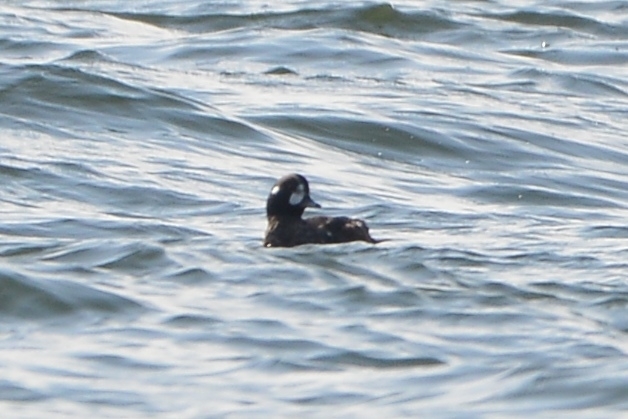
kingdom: Animalia
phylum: Chordata
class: Aves
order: Anseriformes
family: Anatidae
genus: Histrionicus
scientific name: Histrionicus histrionicus
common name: Harlequin duck
